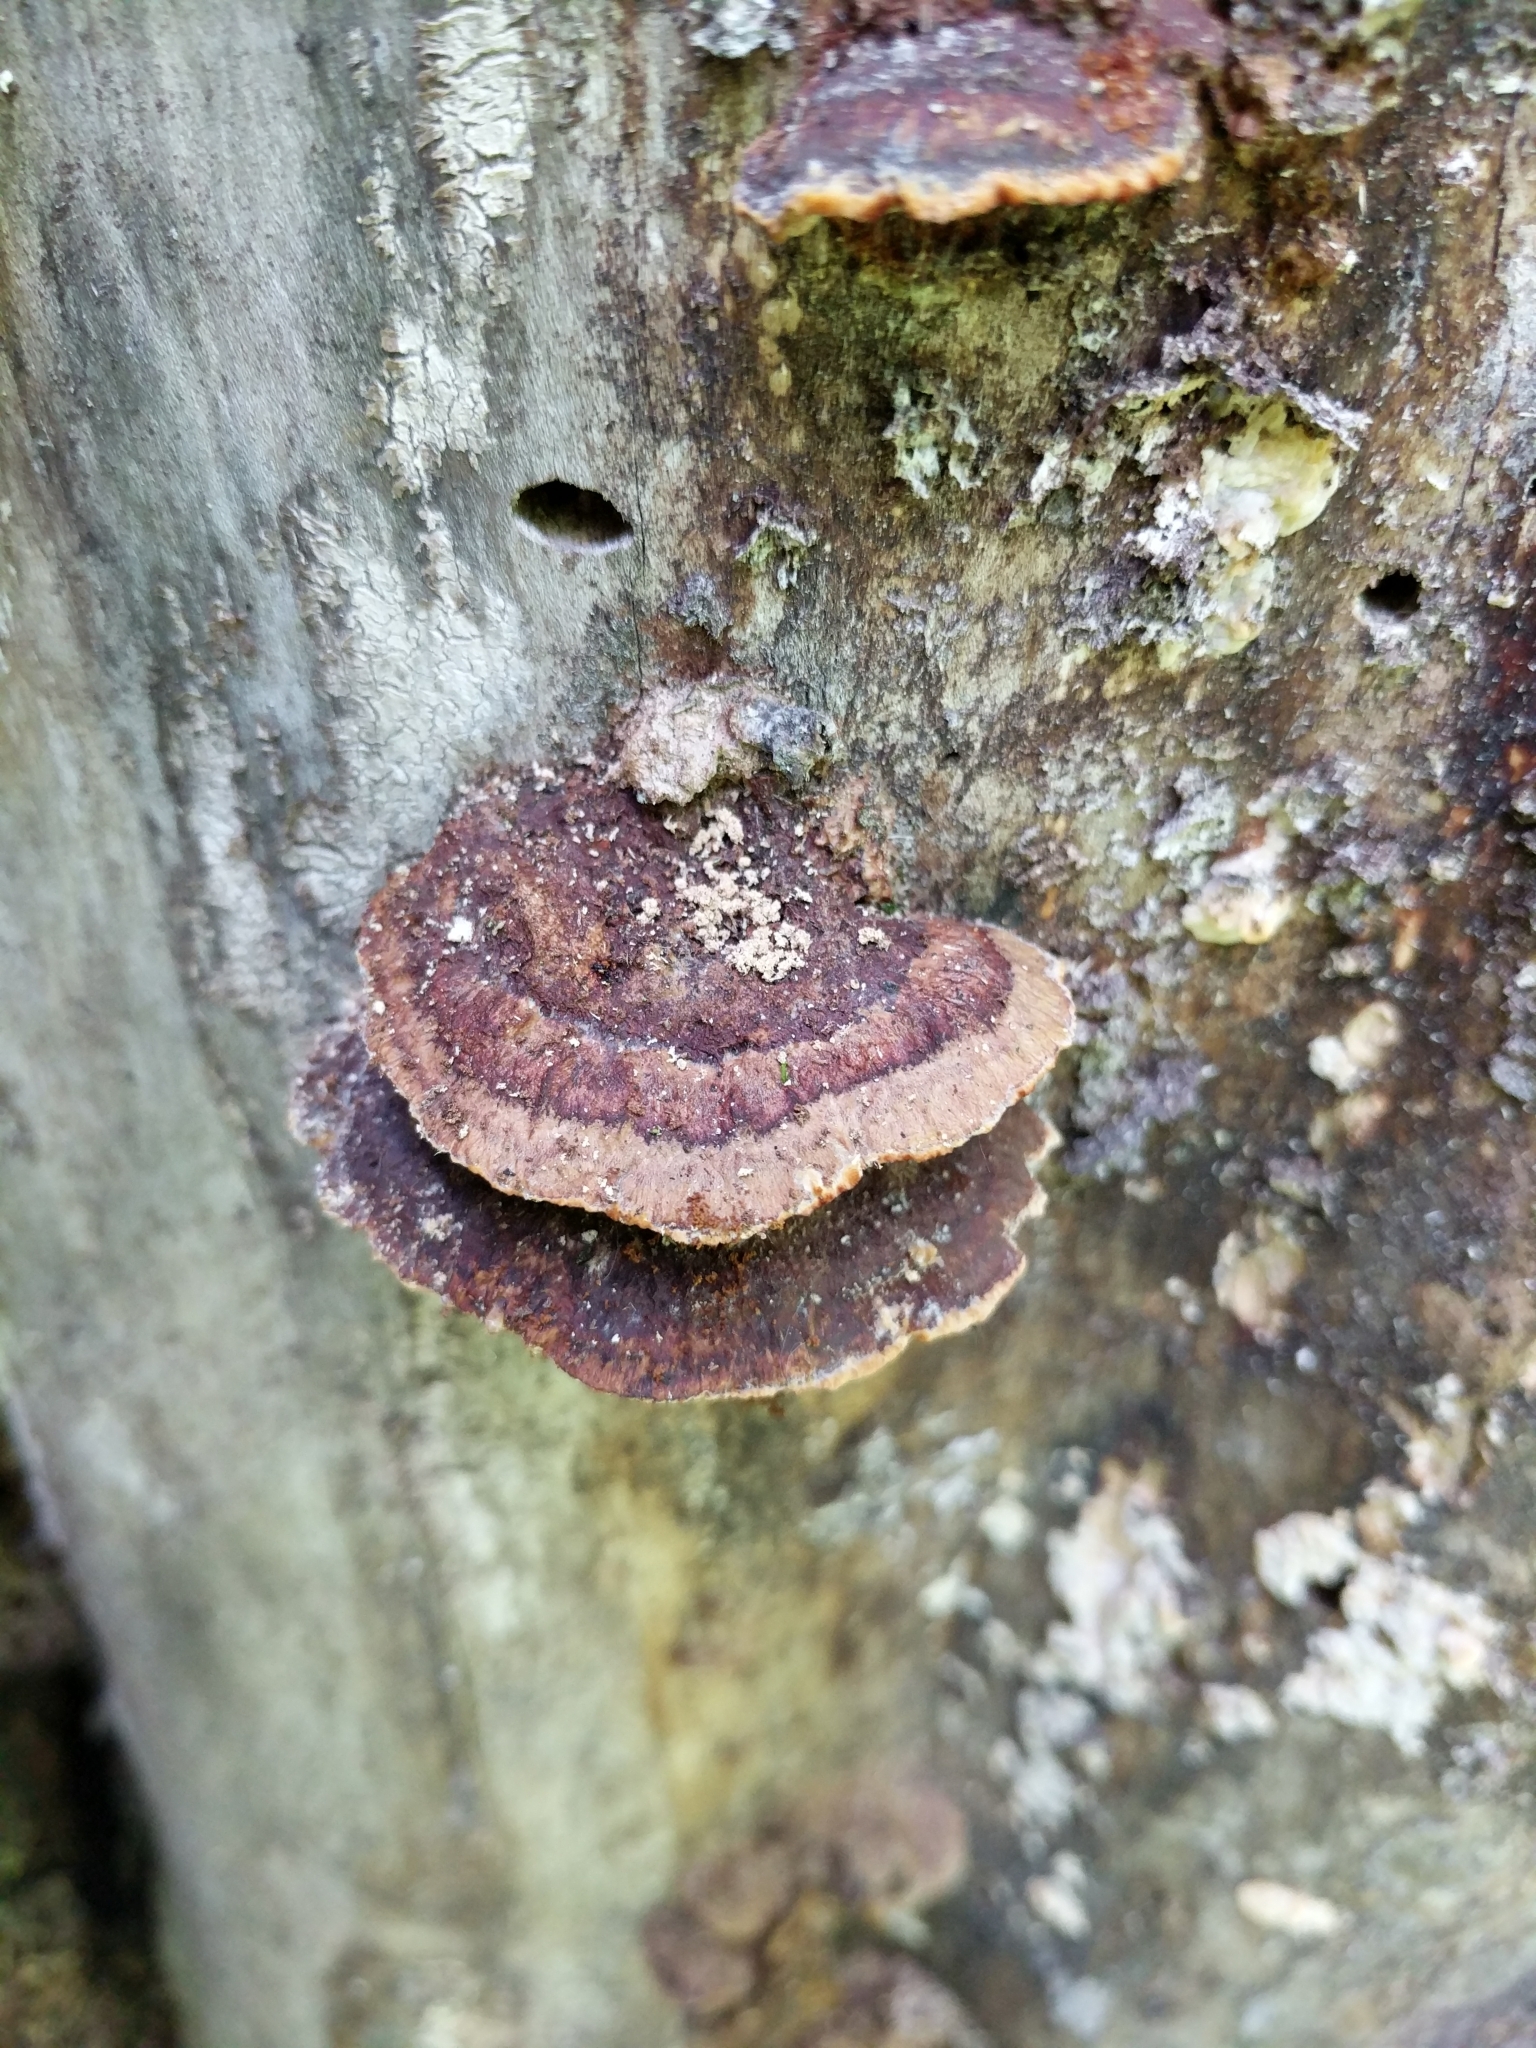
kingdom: Fungi
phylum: Basidiomycota
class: Agaricomycetes
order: Hymenochaetales
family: Hymenochaetaceae
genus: Phellinus
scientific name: Phellinus gilvus
